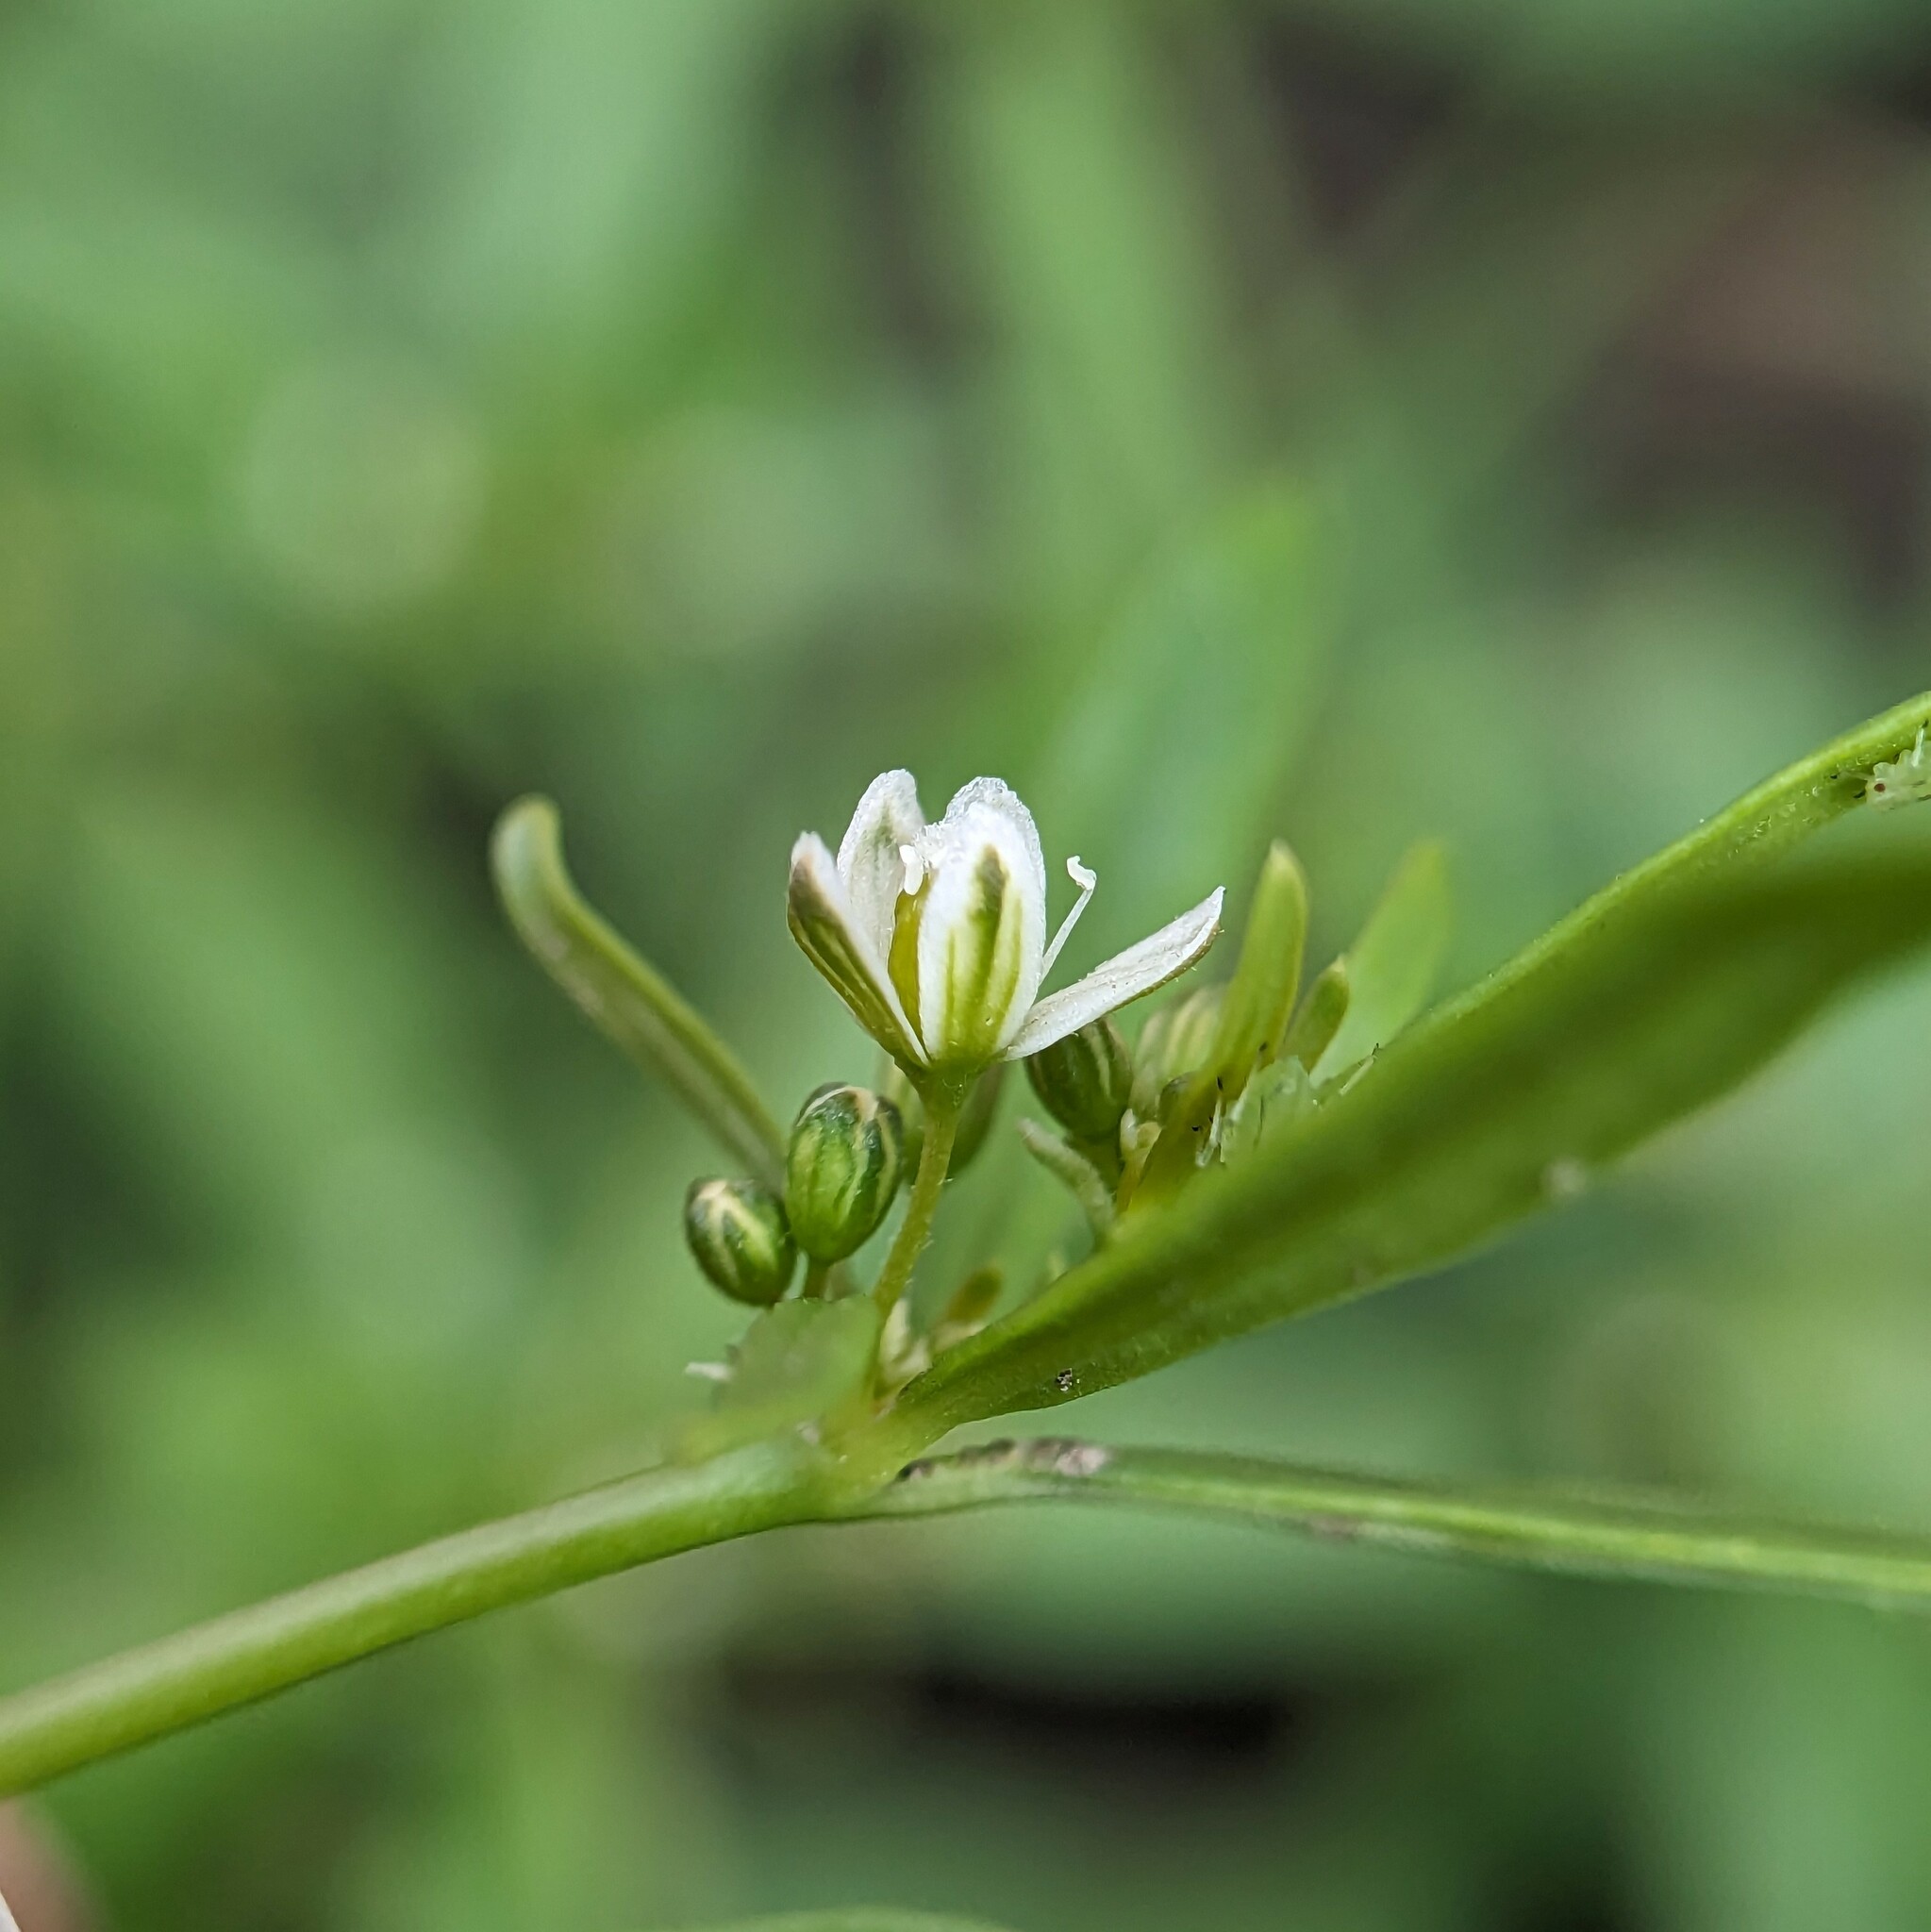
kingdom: Plantae
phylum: Tracheophyta
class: Magnoliopsida
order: Caryophyllales
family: Molluginaceae
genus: Mollugo
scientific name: Mollugo verticillata
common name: Green carpetweed
